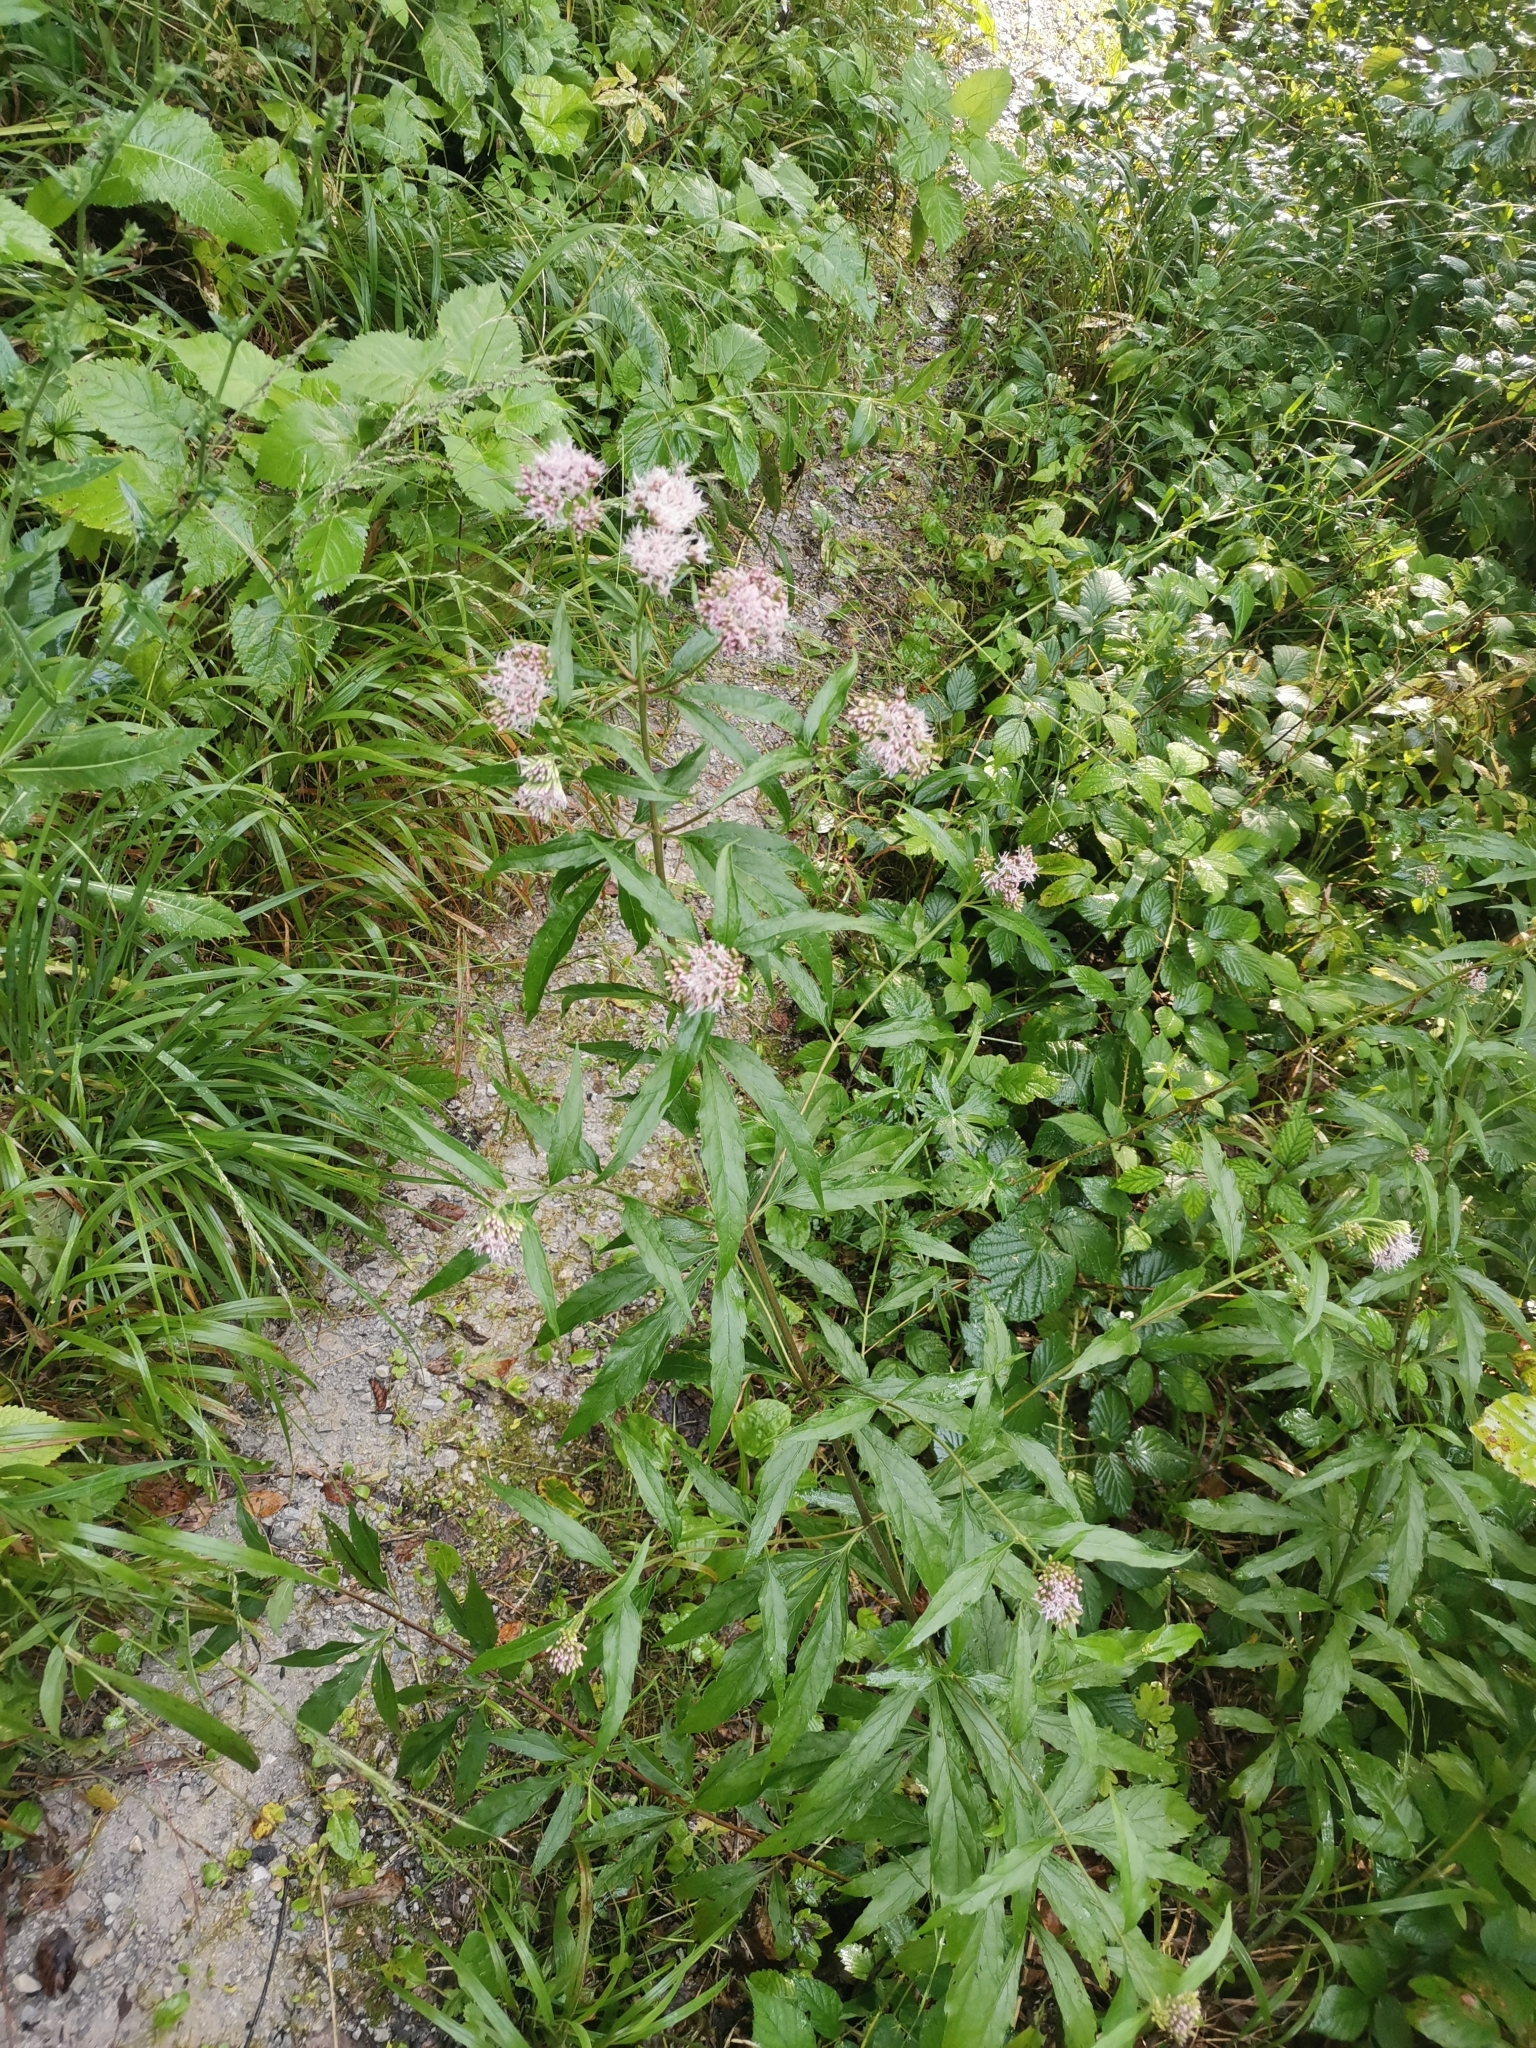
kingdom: Plantae
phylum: Tracheophyta
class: Magnoliopsida
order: Asterales
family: Asteraceae
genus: Eupatorium
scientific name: Eupatorium cannabinum
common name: Hemp-agrimony
